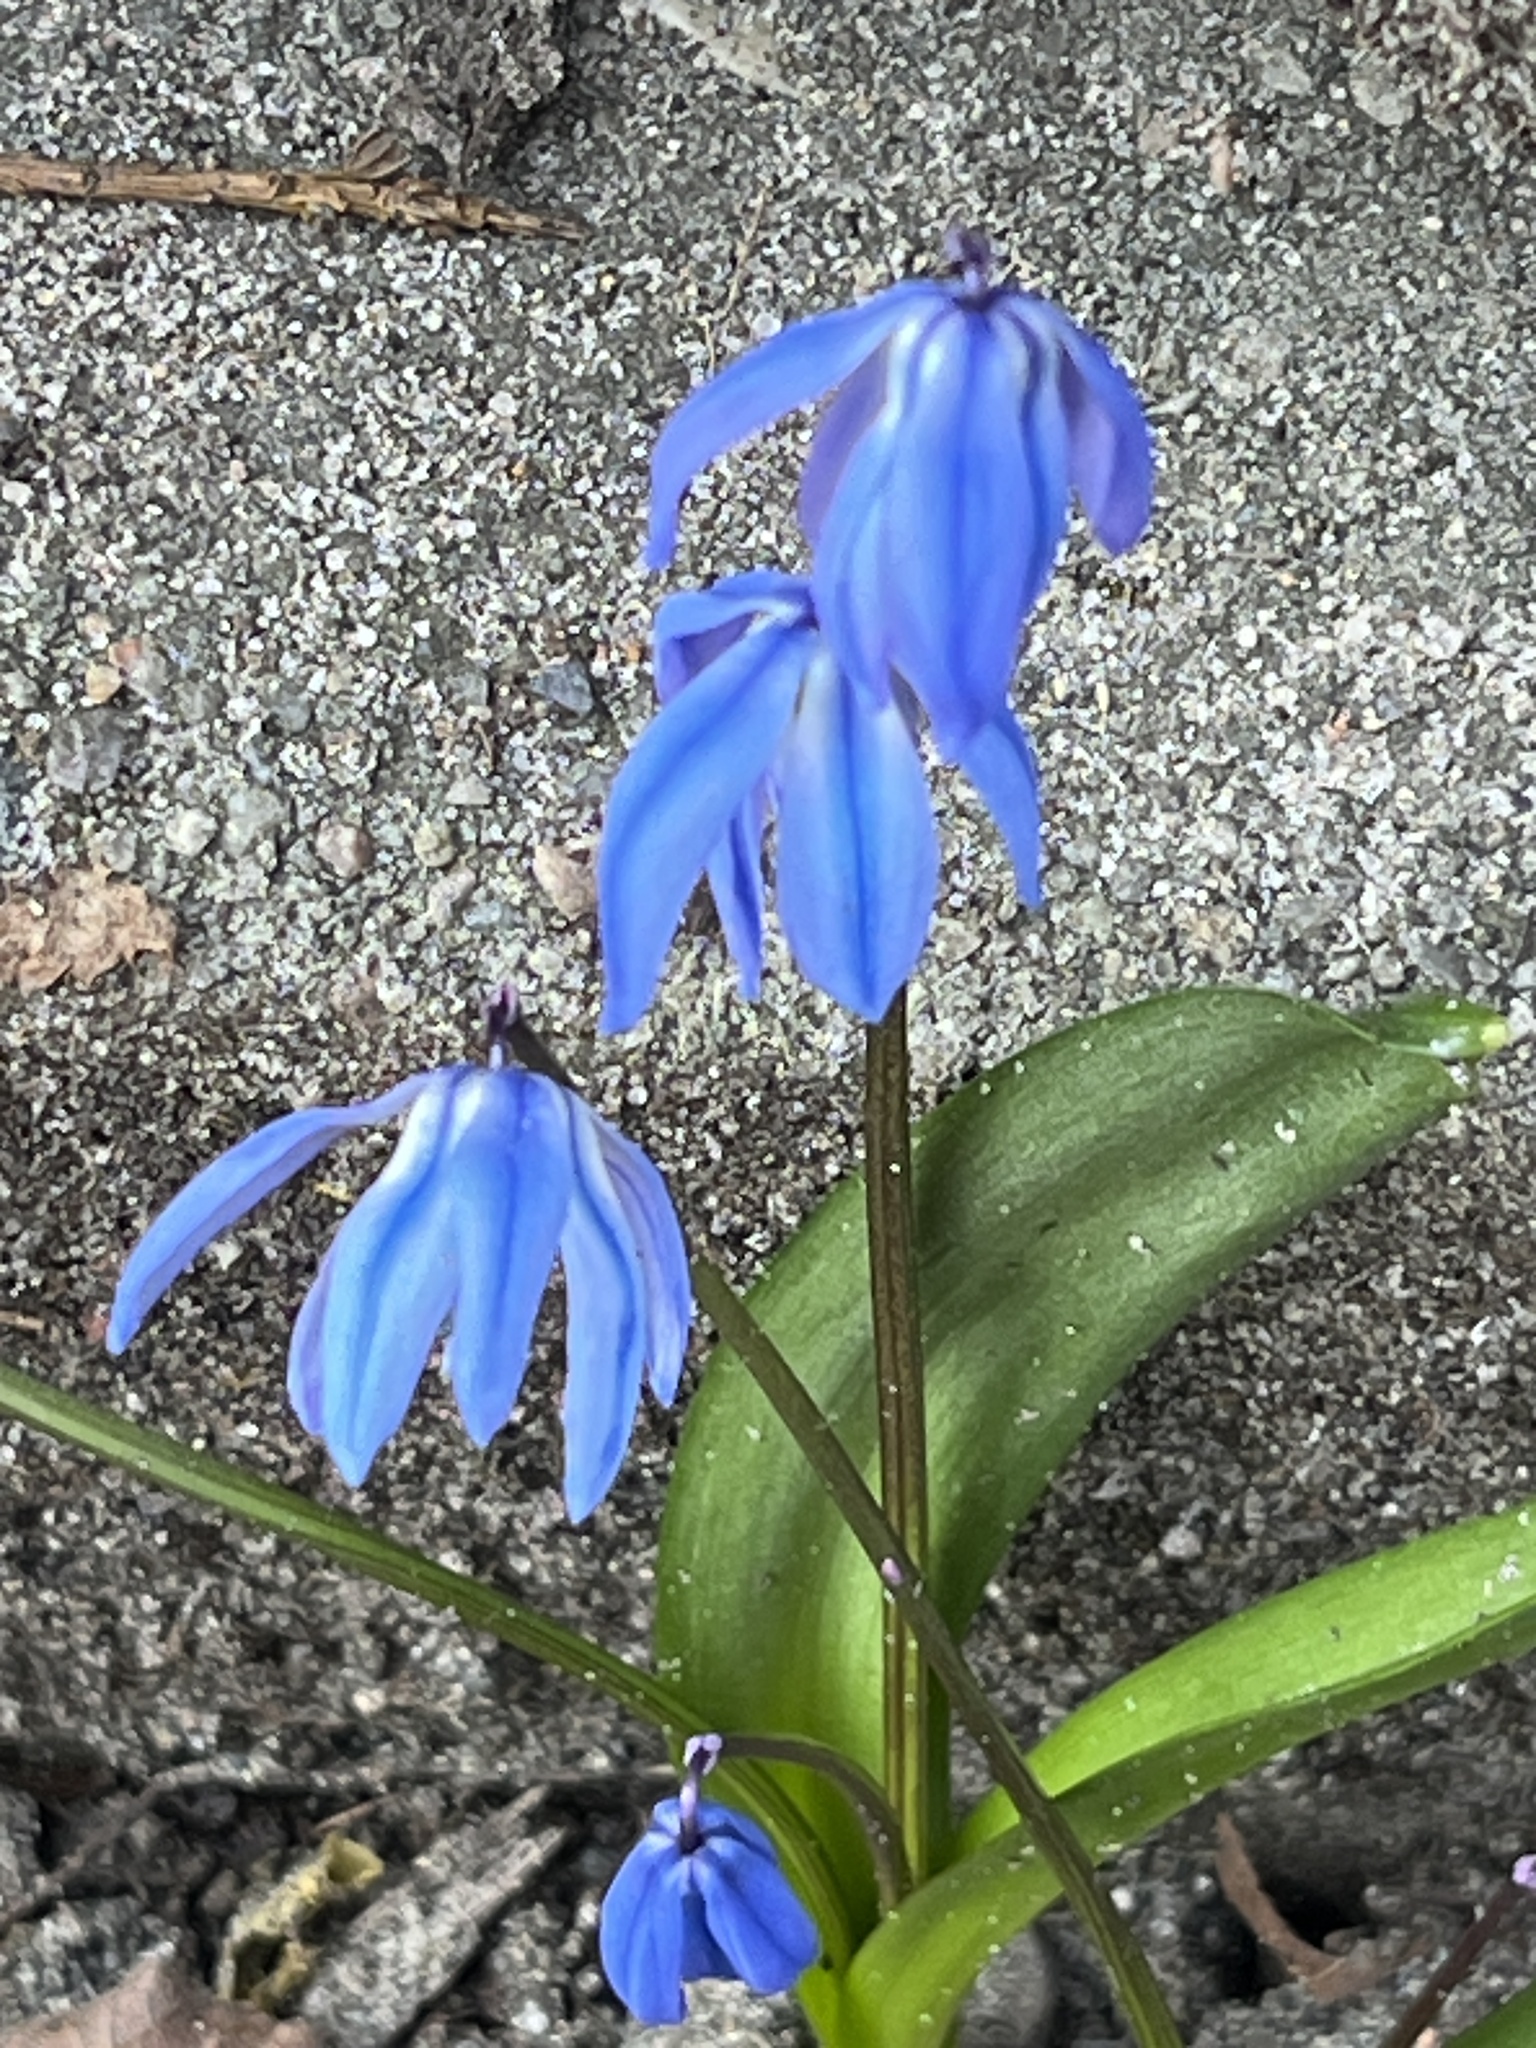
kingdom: Plantae
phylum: Tracheophyta
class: Liliopsida
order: Asparagales
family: Asparagaceae
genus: Scilla
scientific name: Scilla siberica
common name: Siberian squill
